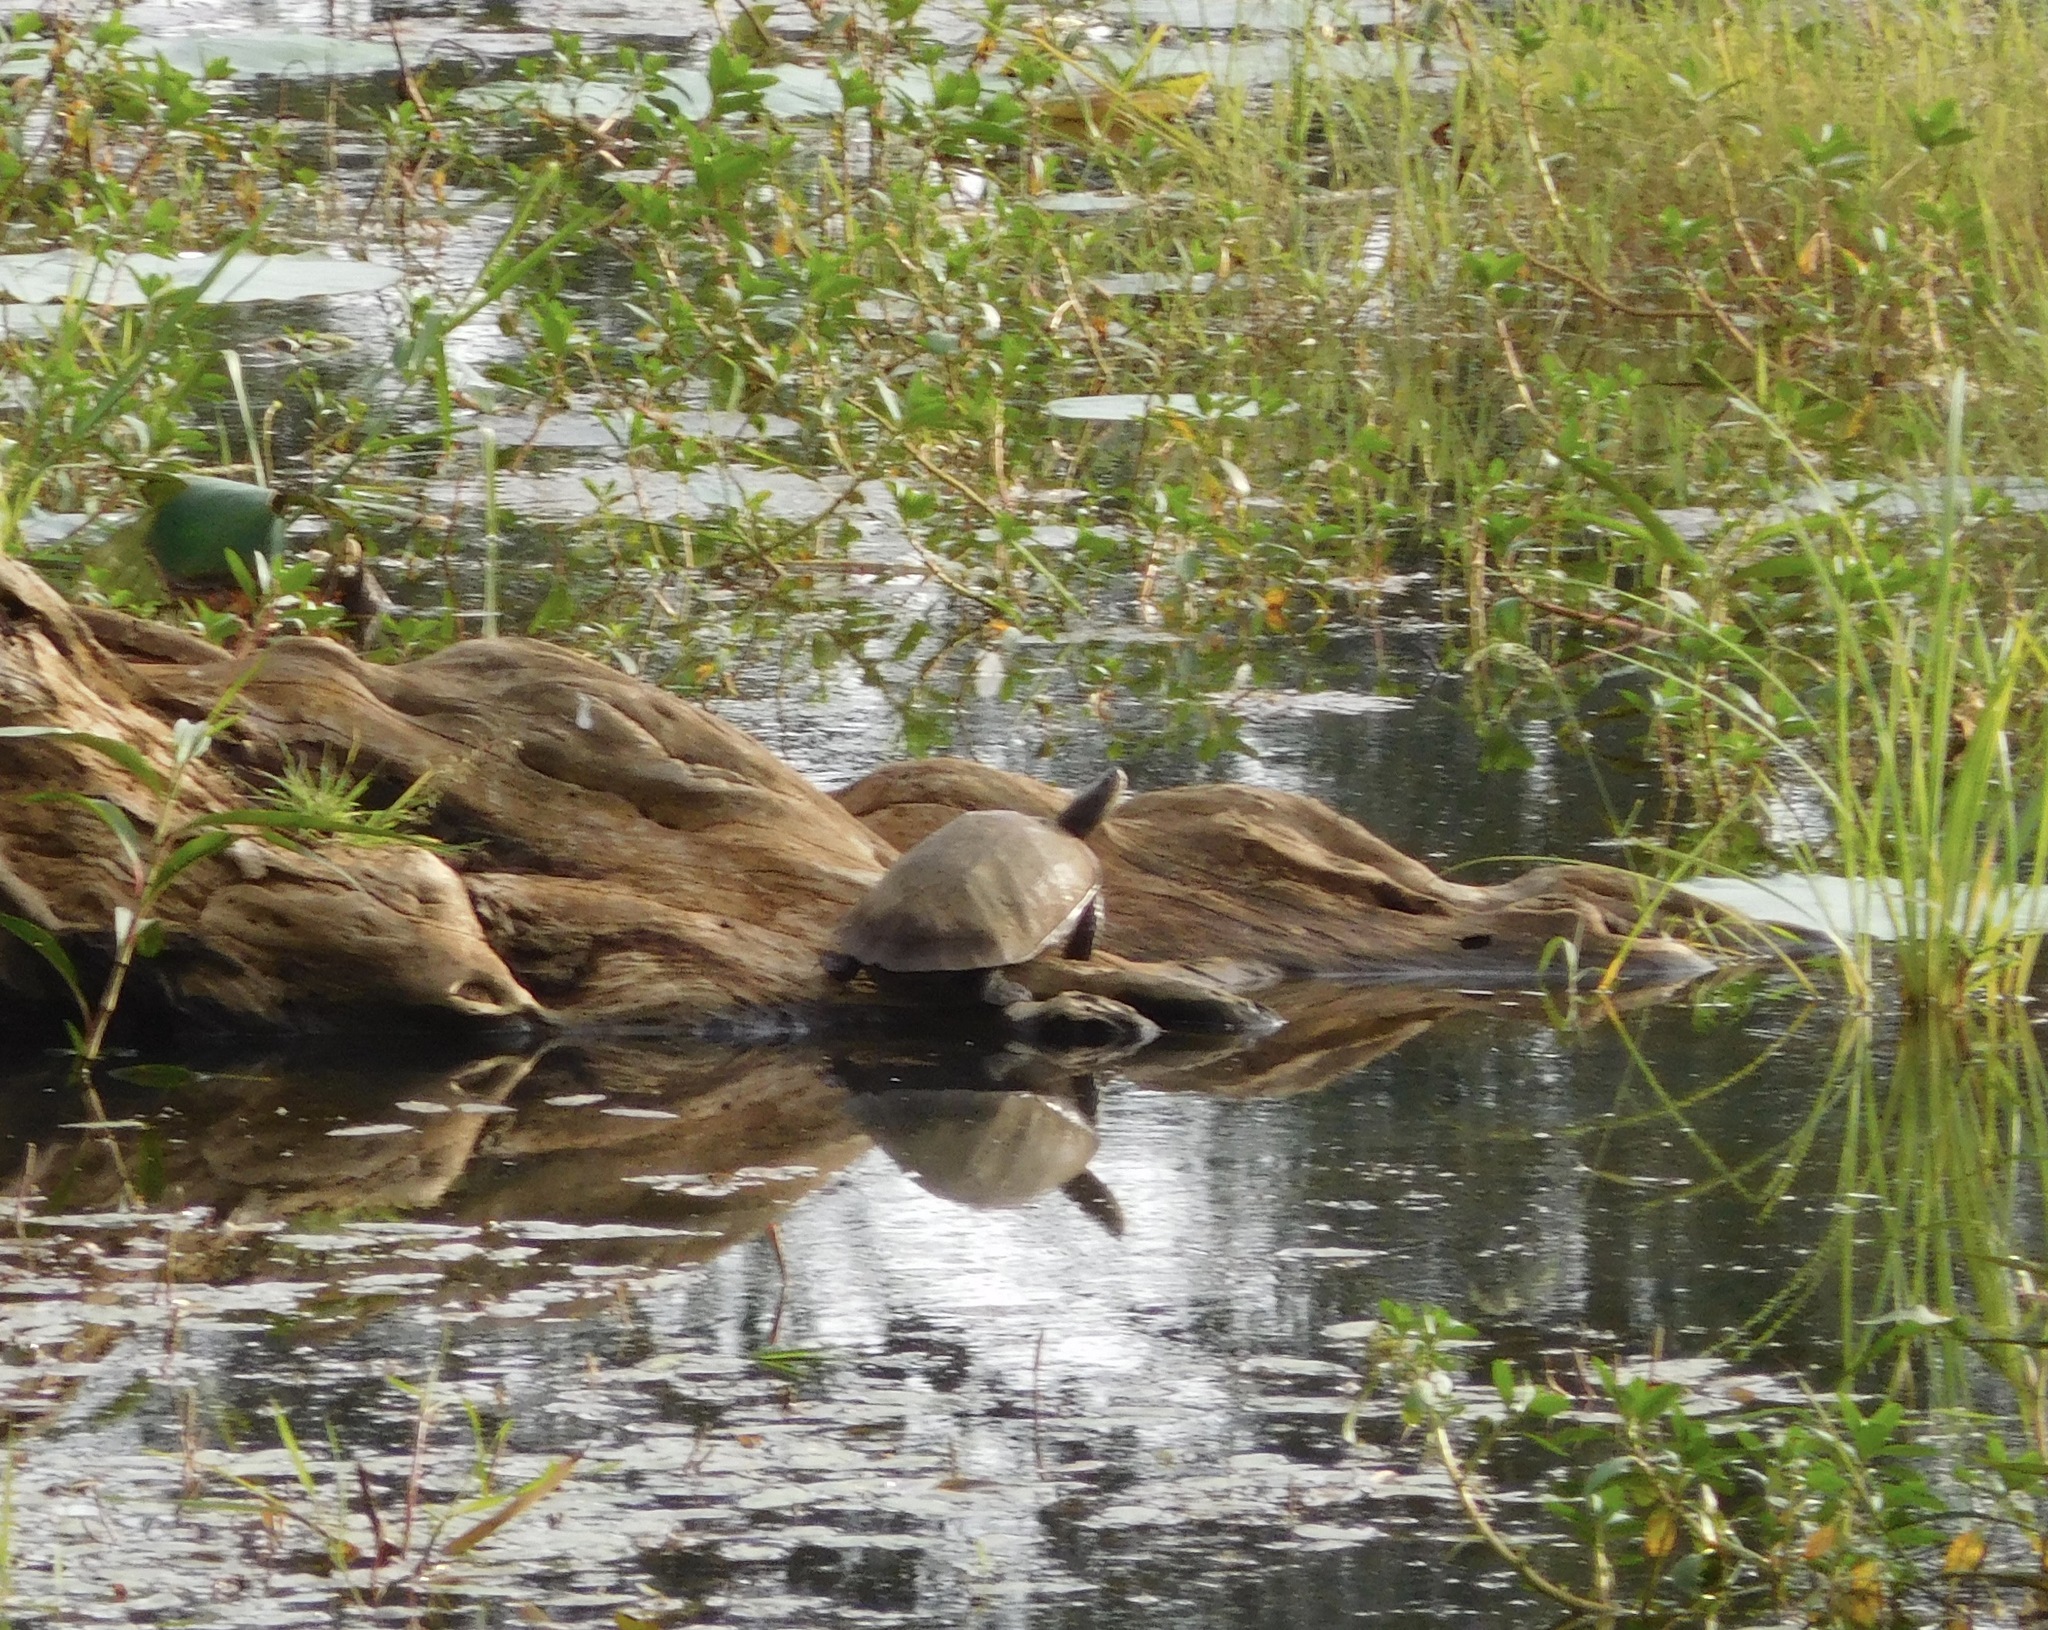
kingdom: Animalia
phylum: Chordata
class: Testudines
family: Geoemydidae
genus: Melanochelys
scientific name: Melanochelys trijuga
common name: Indian black turtle
